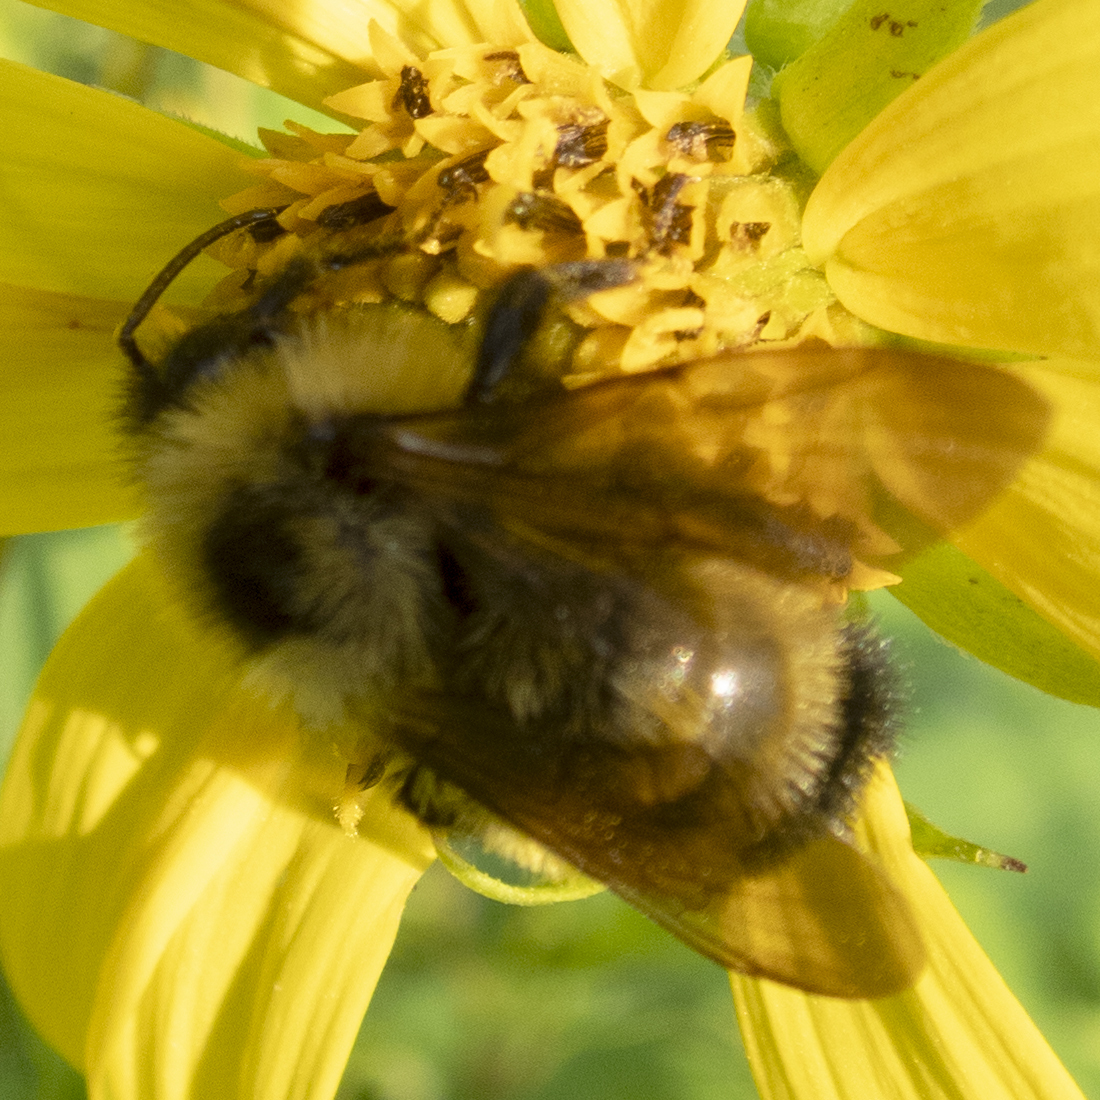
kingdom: Animalia
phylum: Arthropoda
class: Insecta
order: Hymenoptera
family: Apidae
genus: Bombus
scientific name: Bombus citrinus
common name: Lemon cuckoo bumble bee
